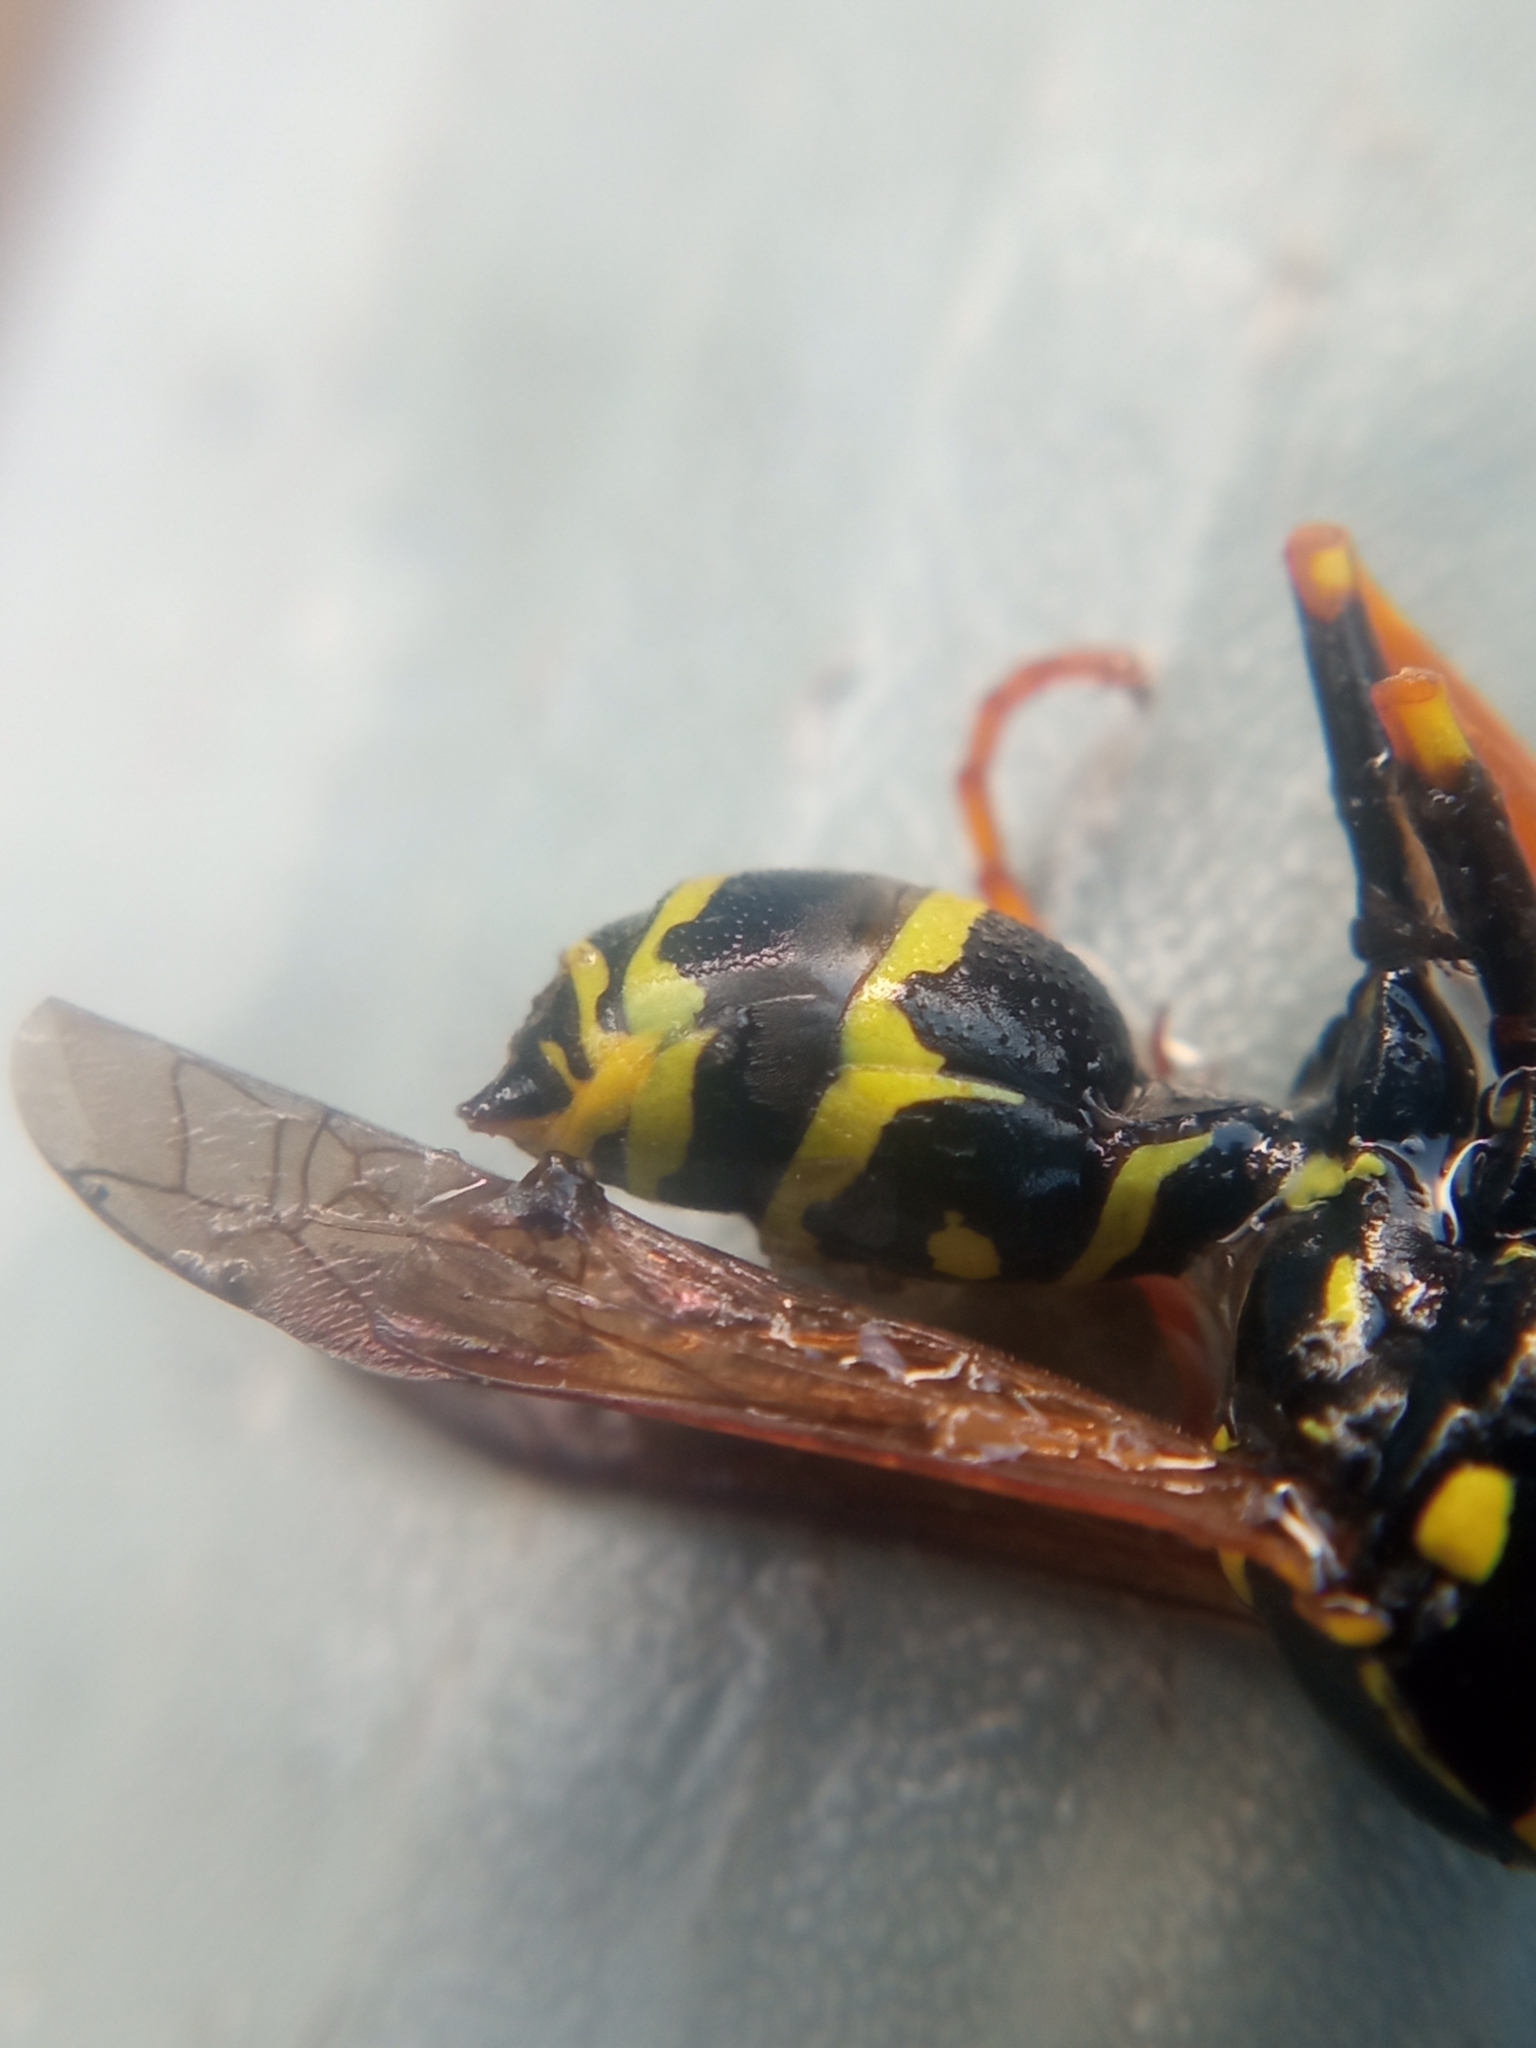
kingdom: Animalia
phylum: Arthropoda
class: Insecta
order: Hymenoptera
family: Eumenidae
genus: Polistes
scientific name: Polistes nimpha
